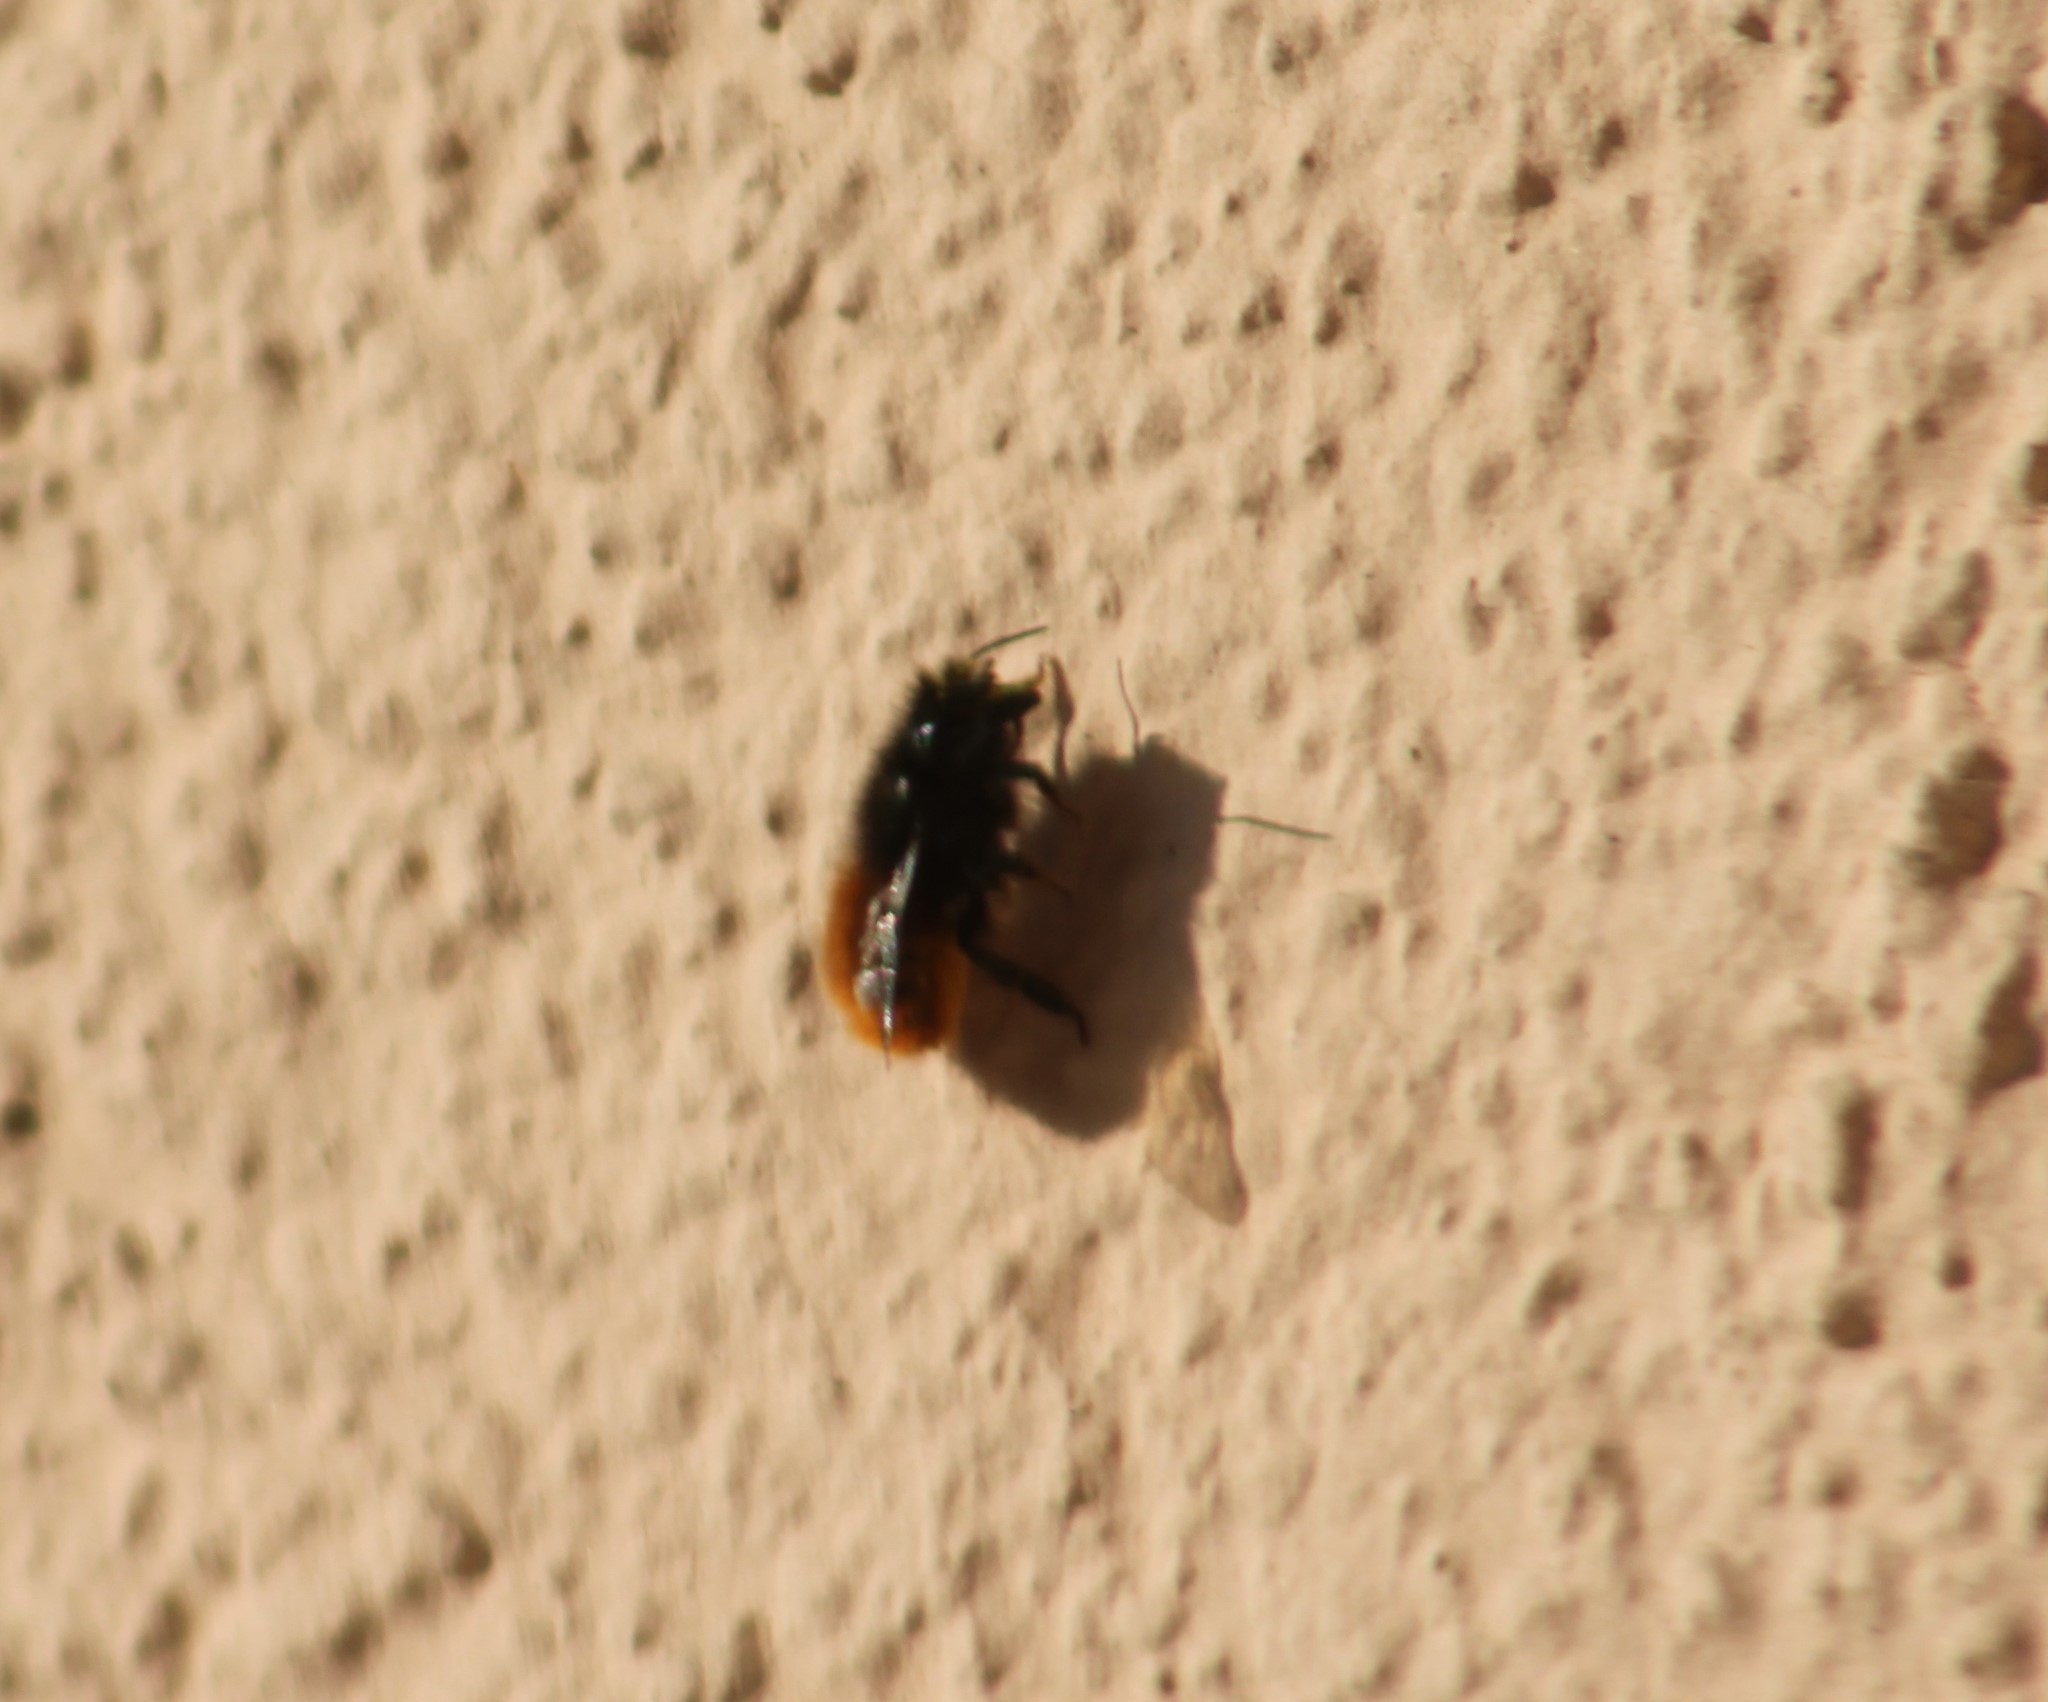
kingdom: Animalia
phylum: Arthropoda
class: Insecta
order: Hymenoptera
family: Megachilidae
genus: Osmia
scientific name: Osmia cornuta
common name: Mason bee
